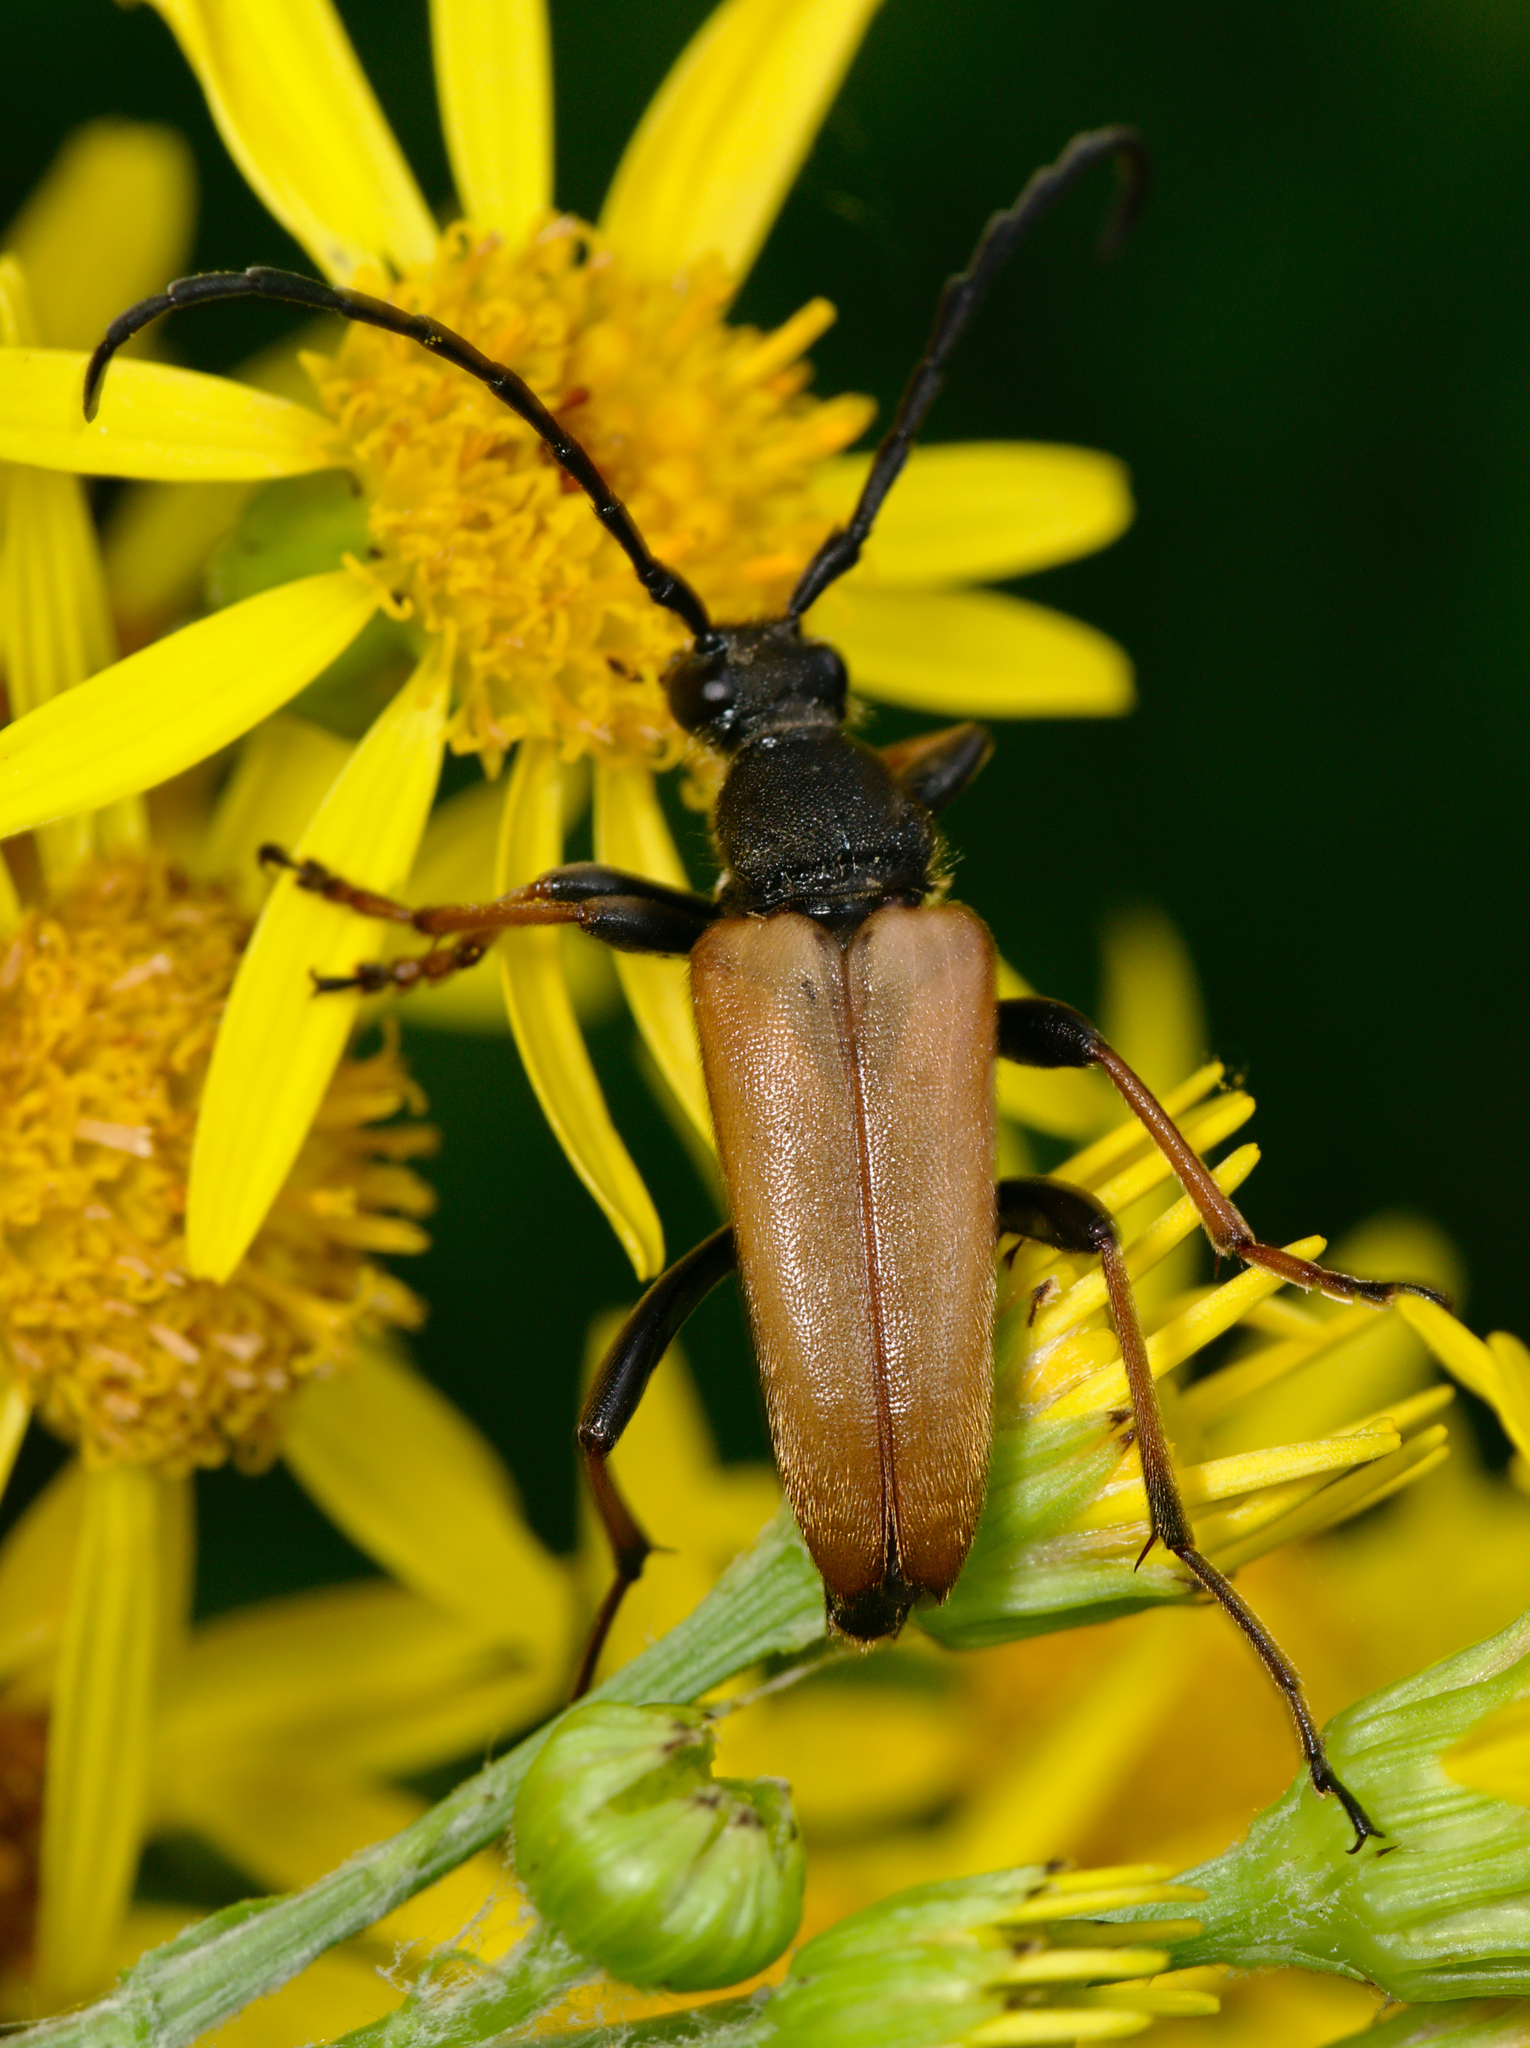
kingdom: Animalia
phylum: Arthropoda
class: Insecta
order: Coleoptera
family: Cerambycidae
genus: Stictoleptura
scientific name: Stictoleptura rubra
